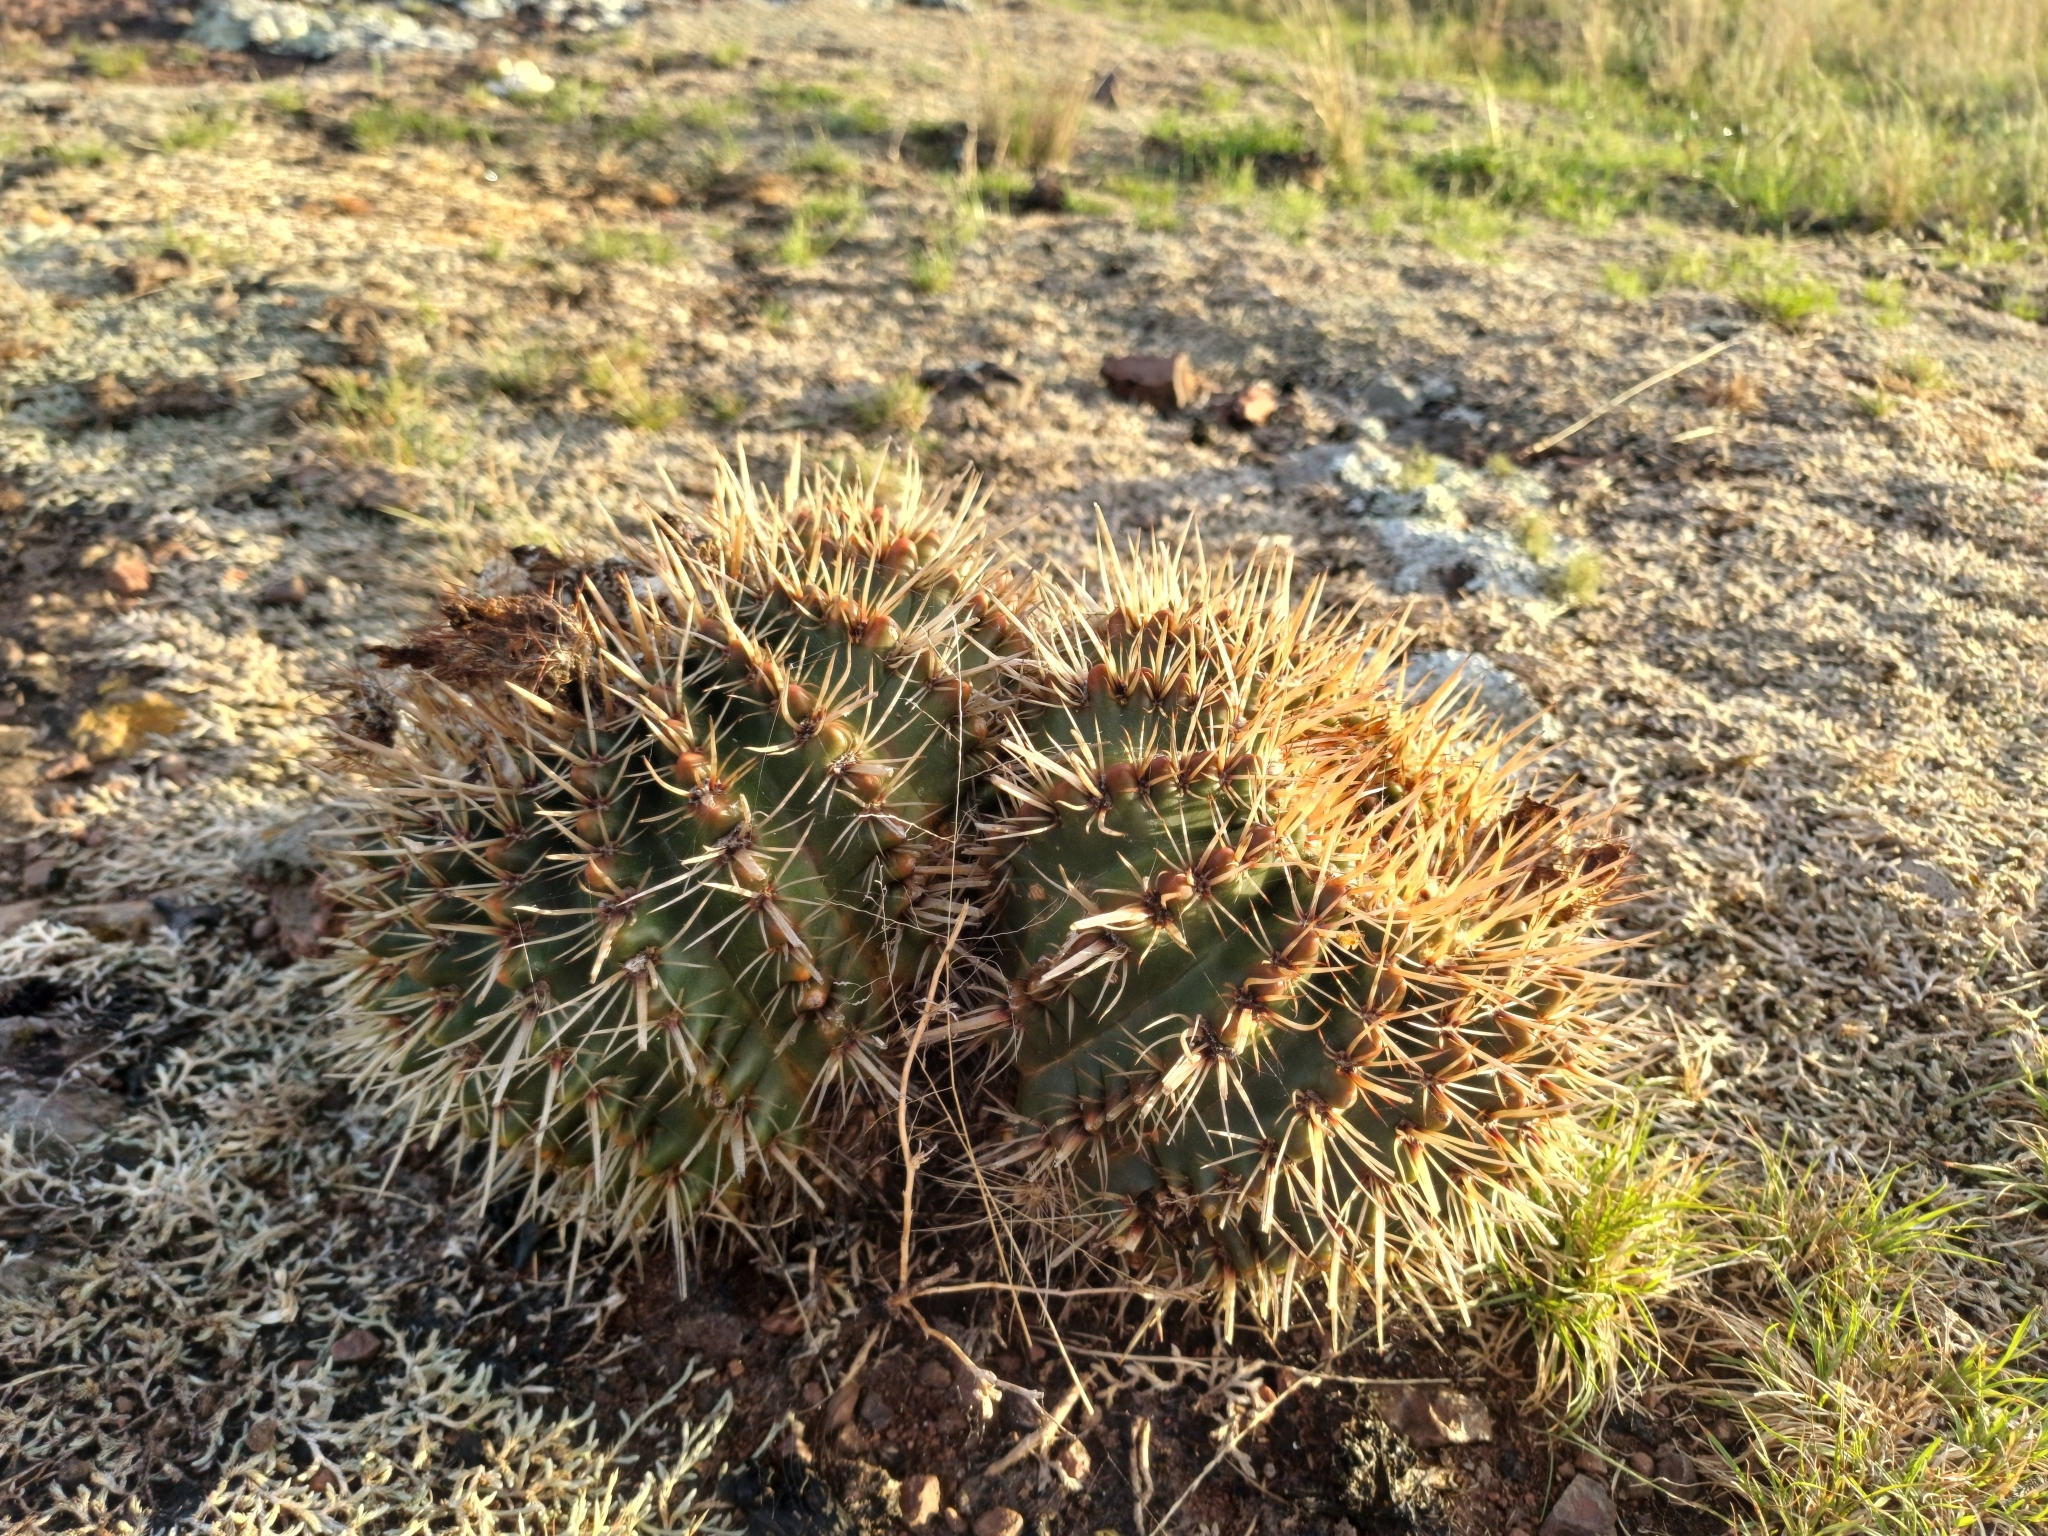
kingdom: Plantae
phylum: Tracheophyta
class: Magnoliopsida
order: Caryophyllales
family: Cactaceae
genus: Parodia
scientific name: Parodia mammulosa
